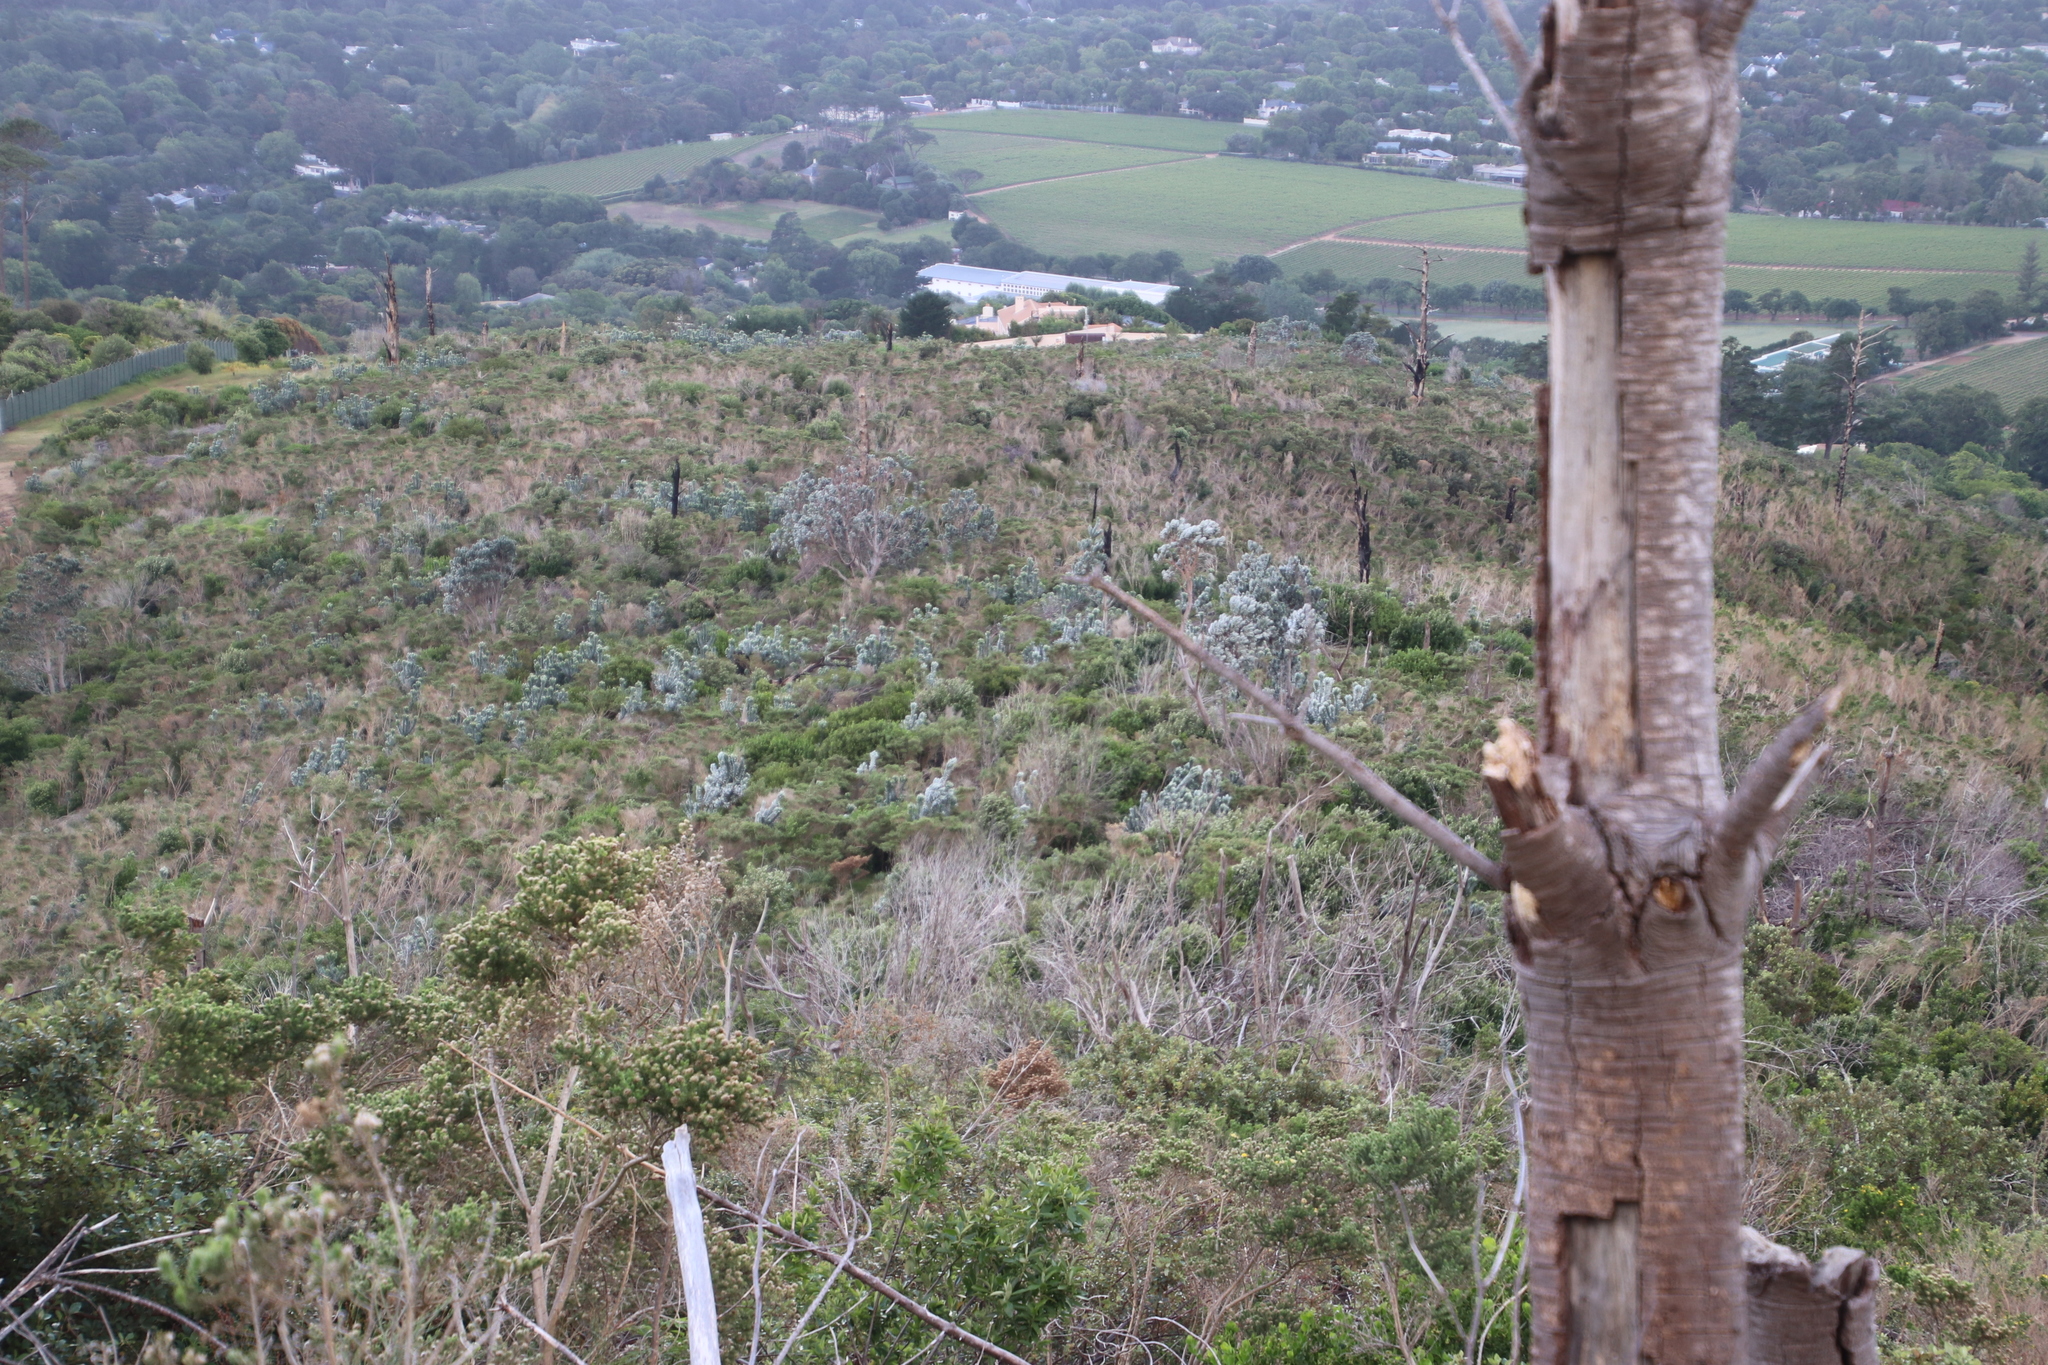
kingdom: Plantae
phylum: Tracheophyta
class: Magnoliopsida
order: Proteales
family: Proteaceae
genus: Leucadendron
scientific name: Leucadendron argenteum
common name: Cape silver tree
